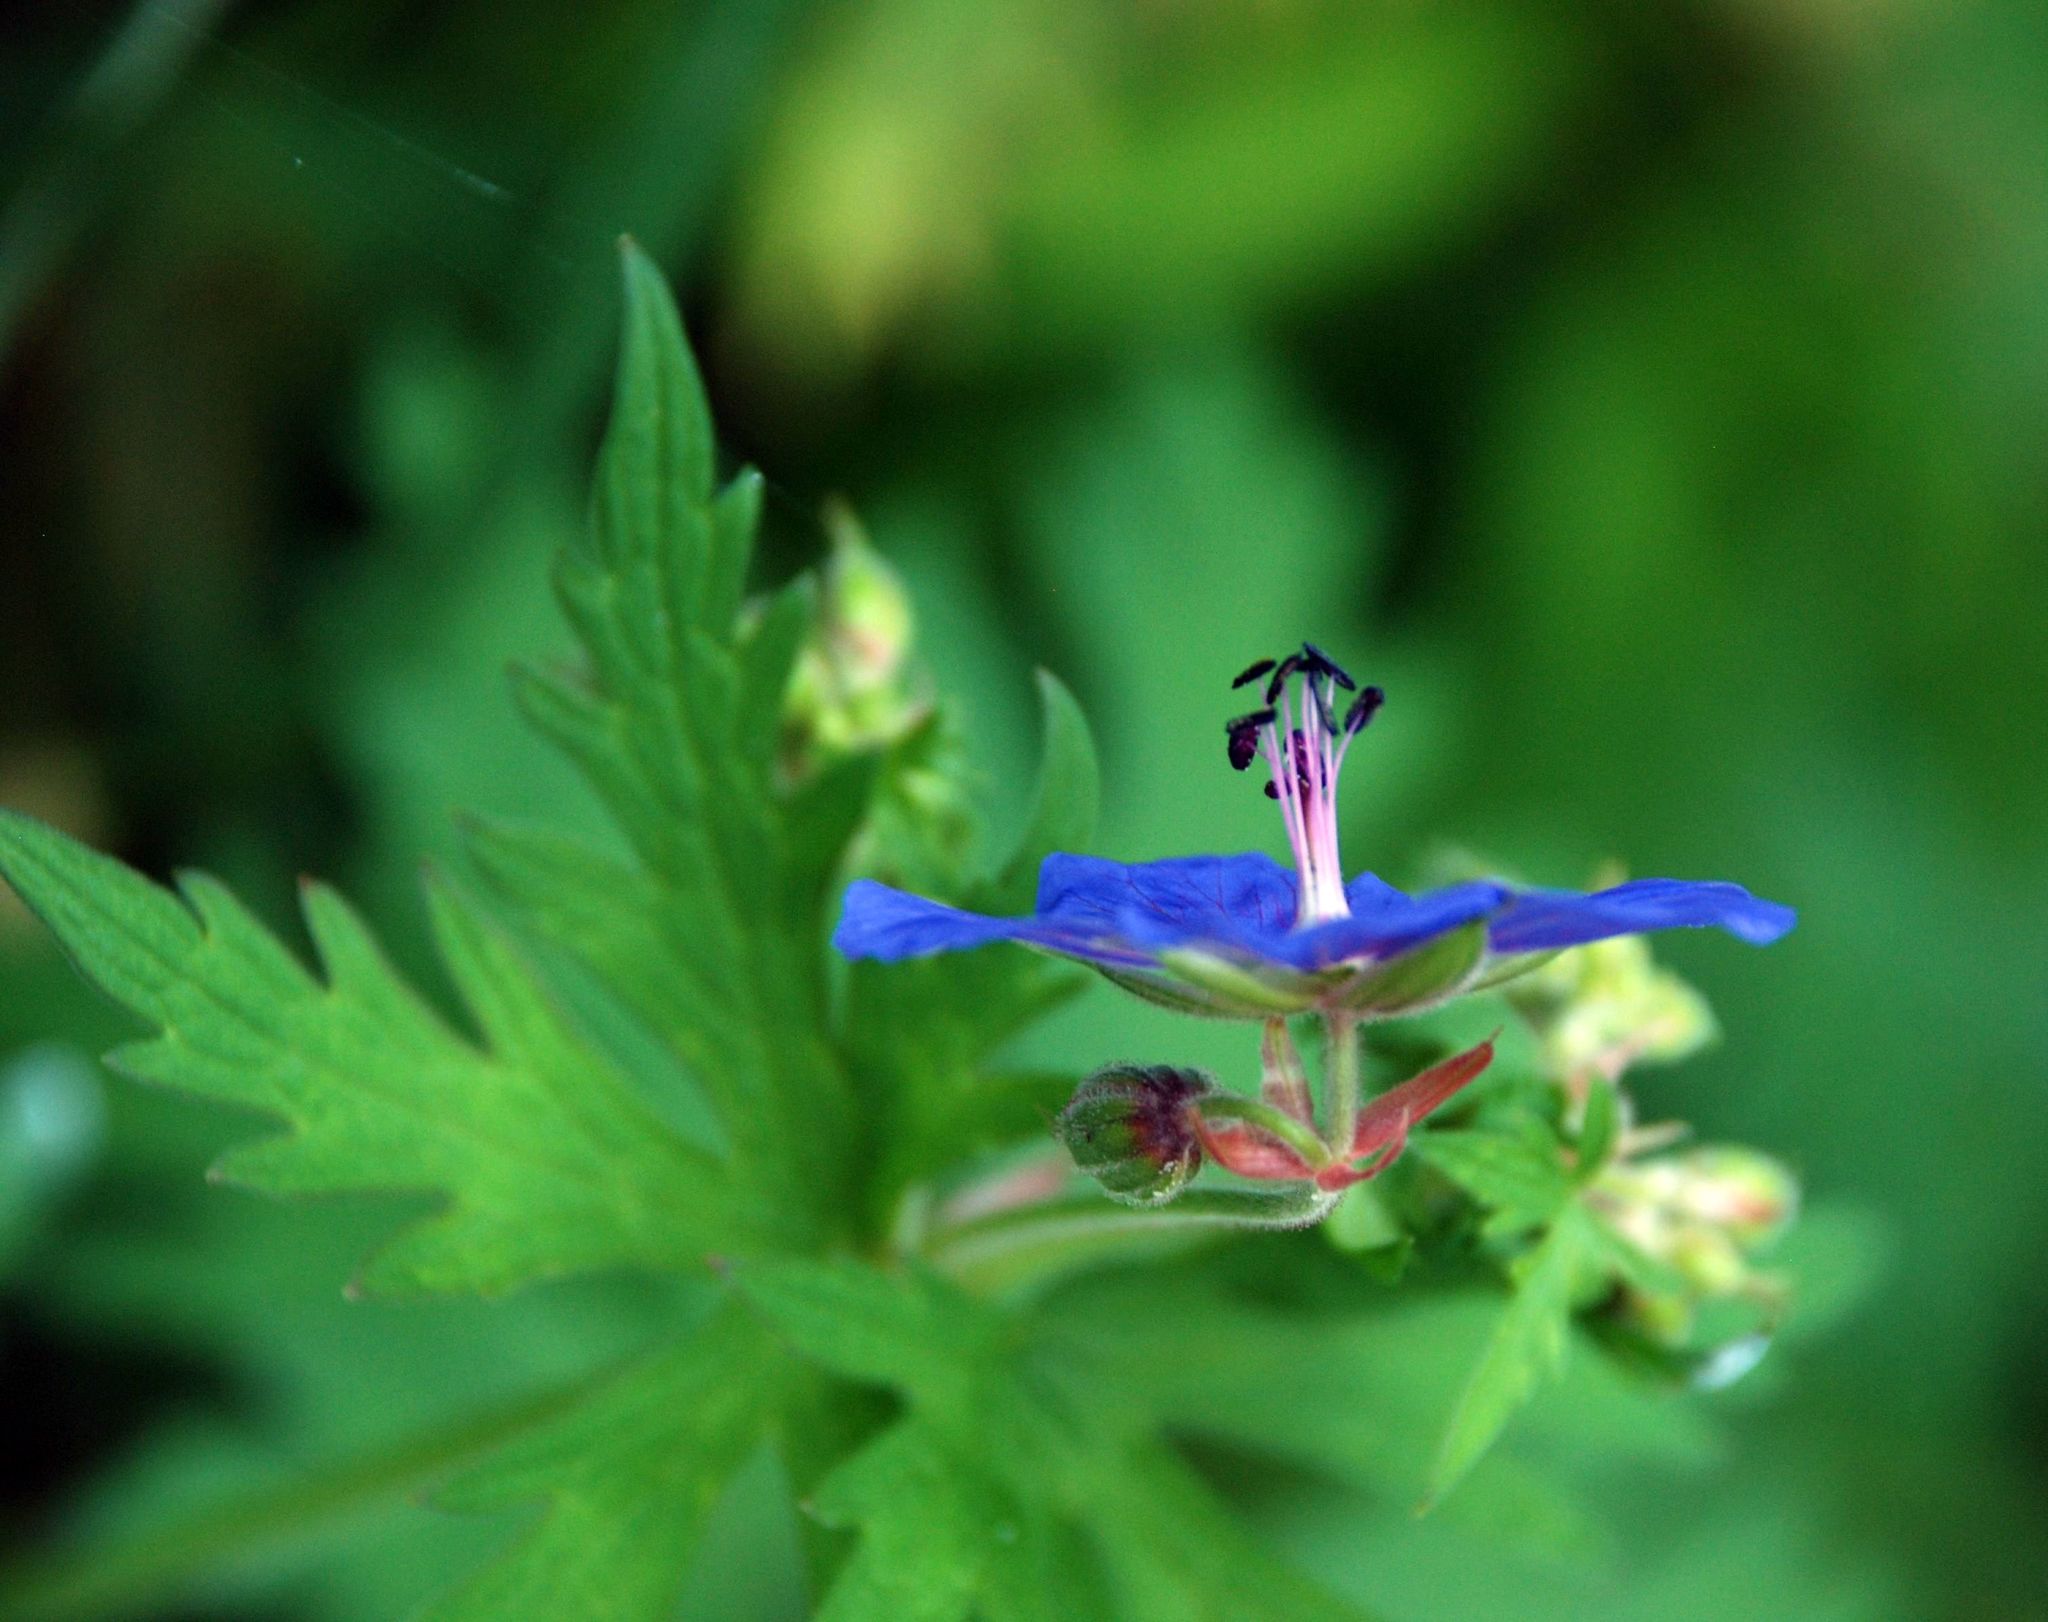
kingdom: Plantae
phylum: Tracheophyta
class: Magnoliopsida
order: Geraniales
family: Geraniaceae
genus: Geranium
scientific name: Geranium pratense
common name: Meadow crane's-bill
